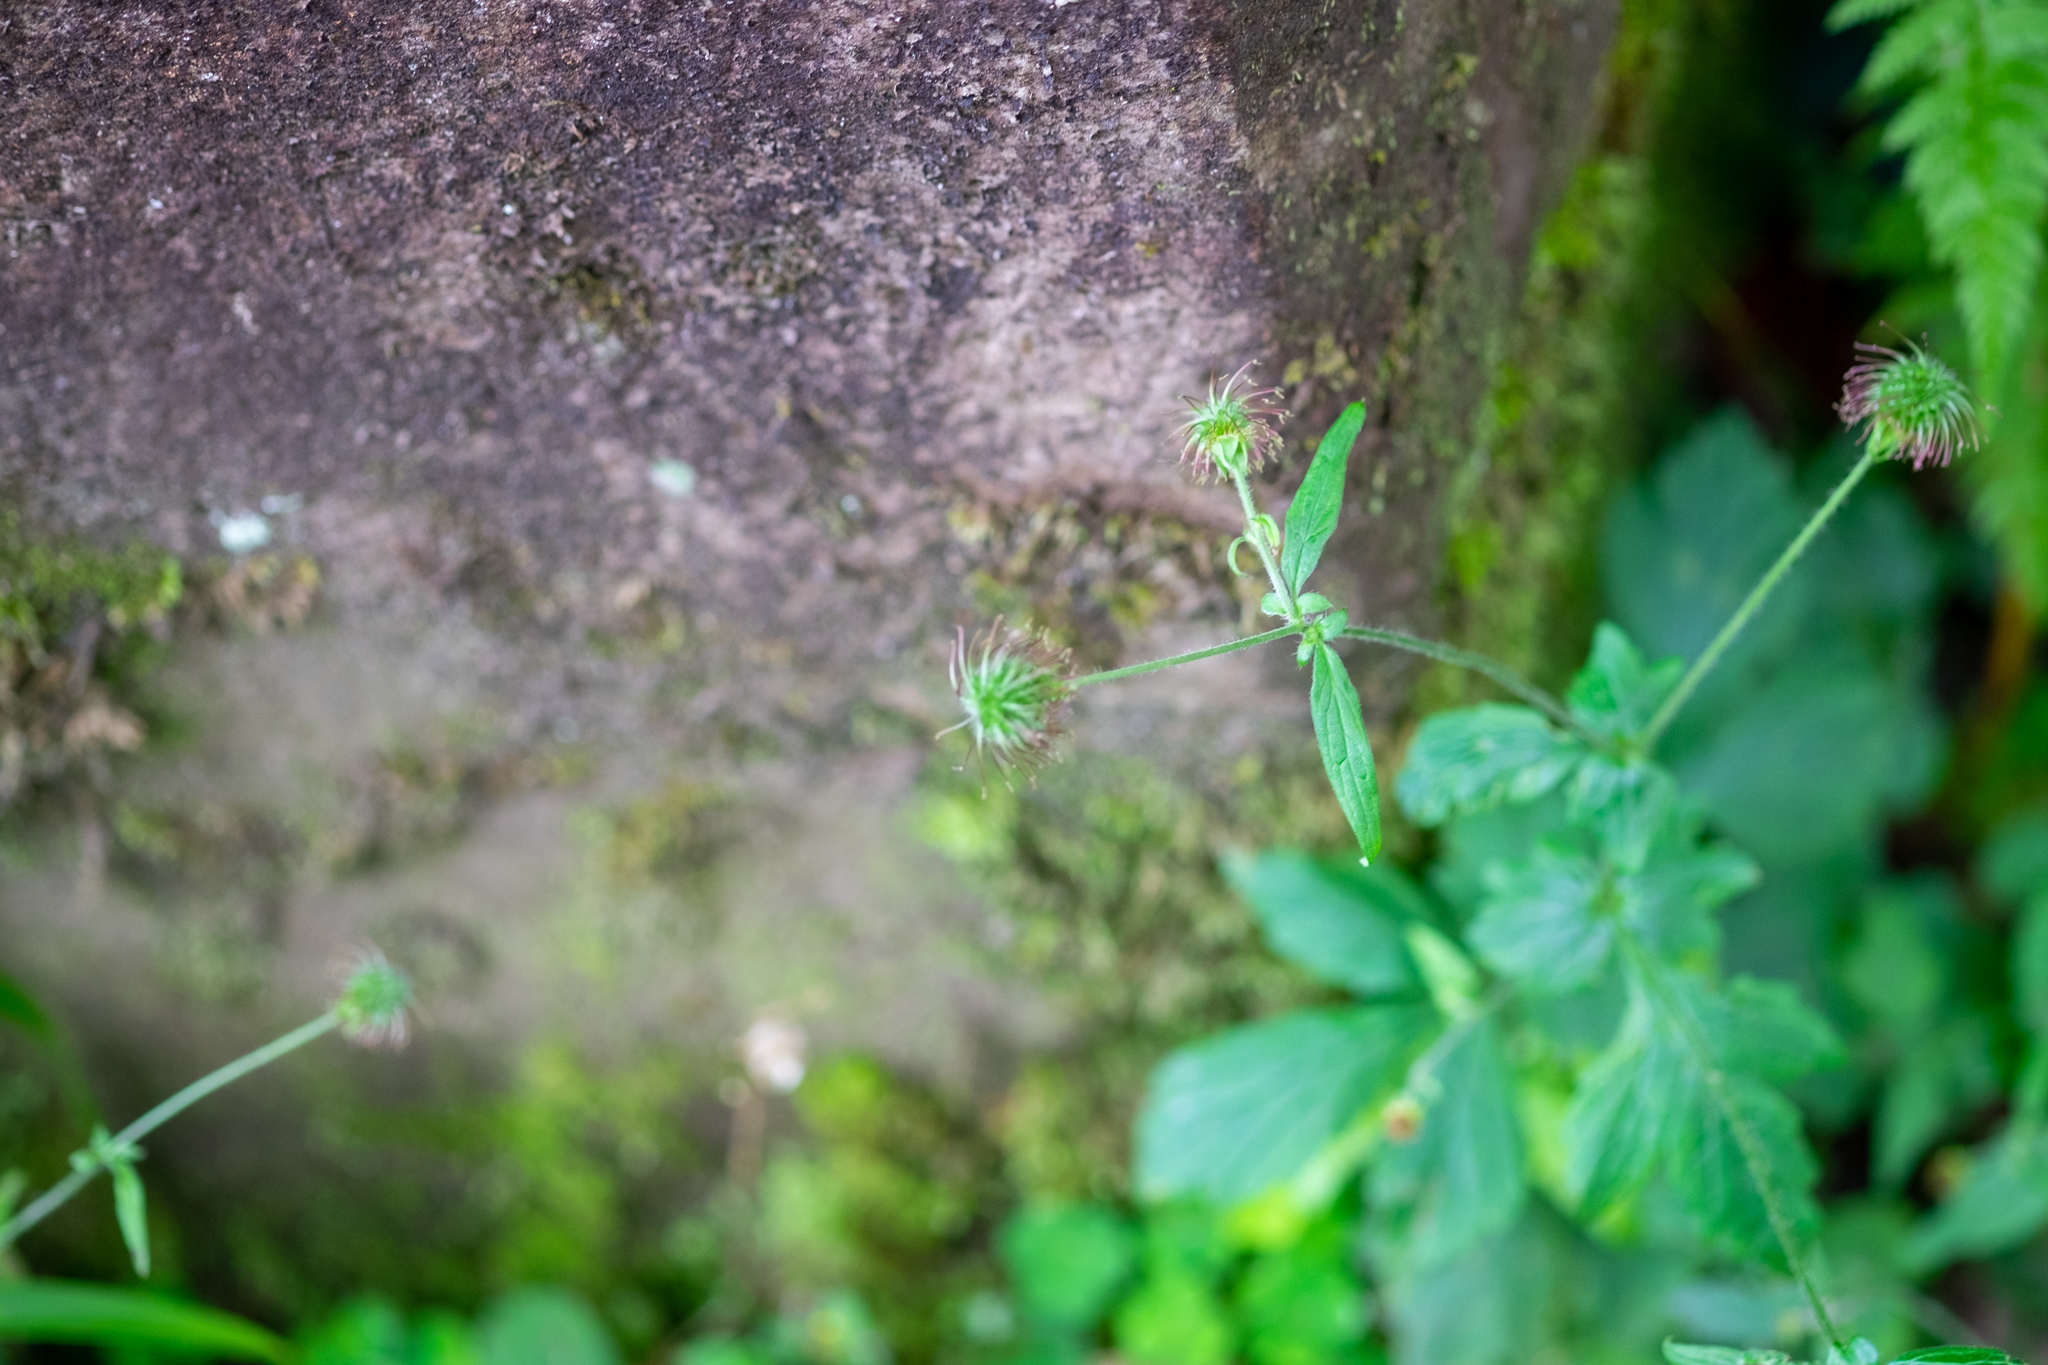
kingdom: Plantae
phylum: Tracheophyta
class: Magnoliopsida
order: Rosales
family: Rosaceae
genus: Geum
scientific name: Geum urbanum
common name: Wood avens
